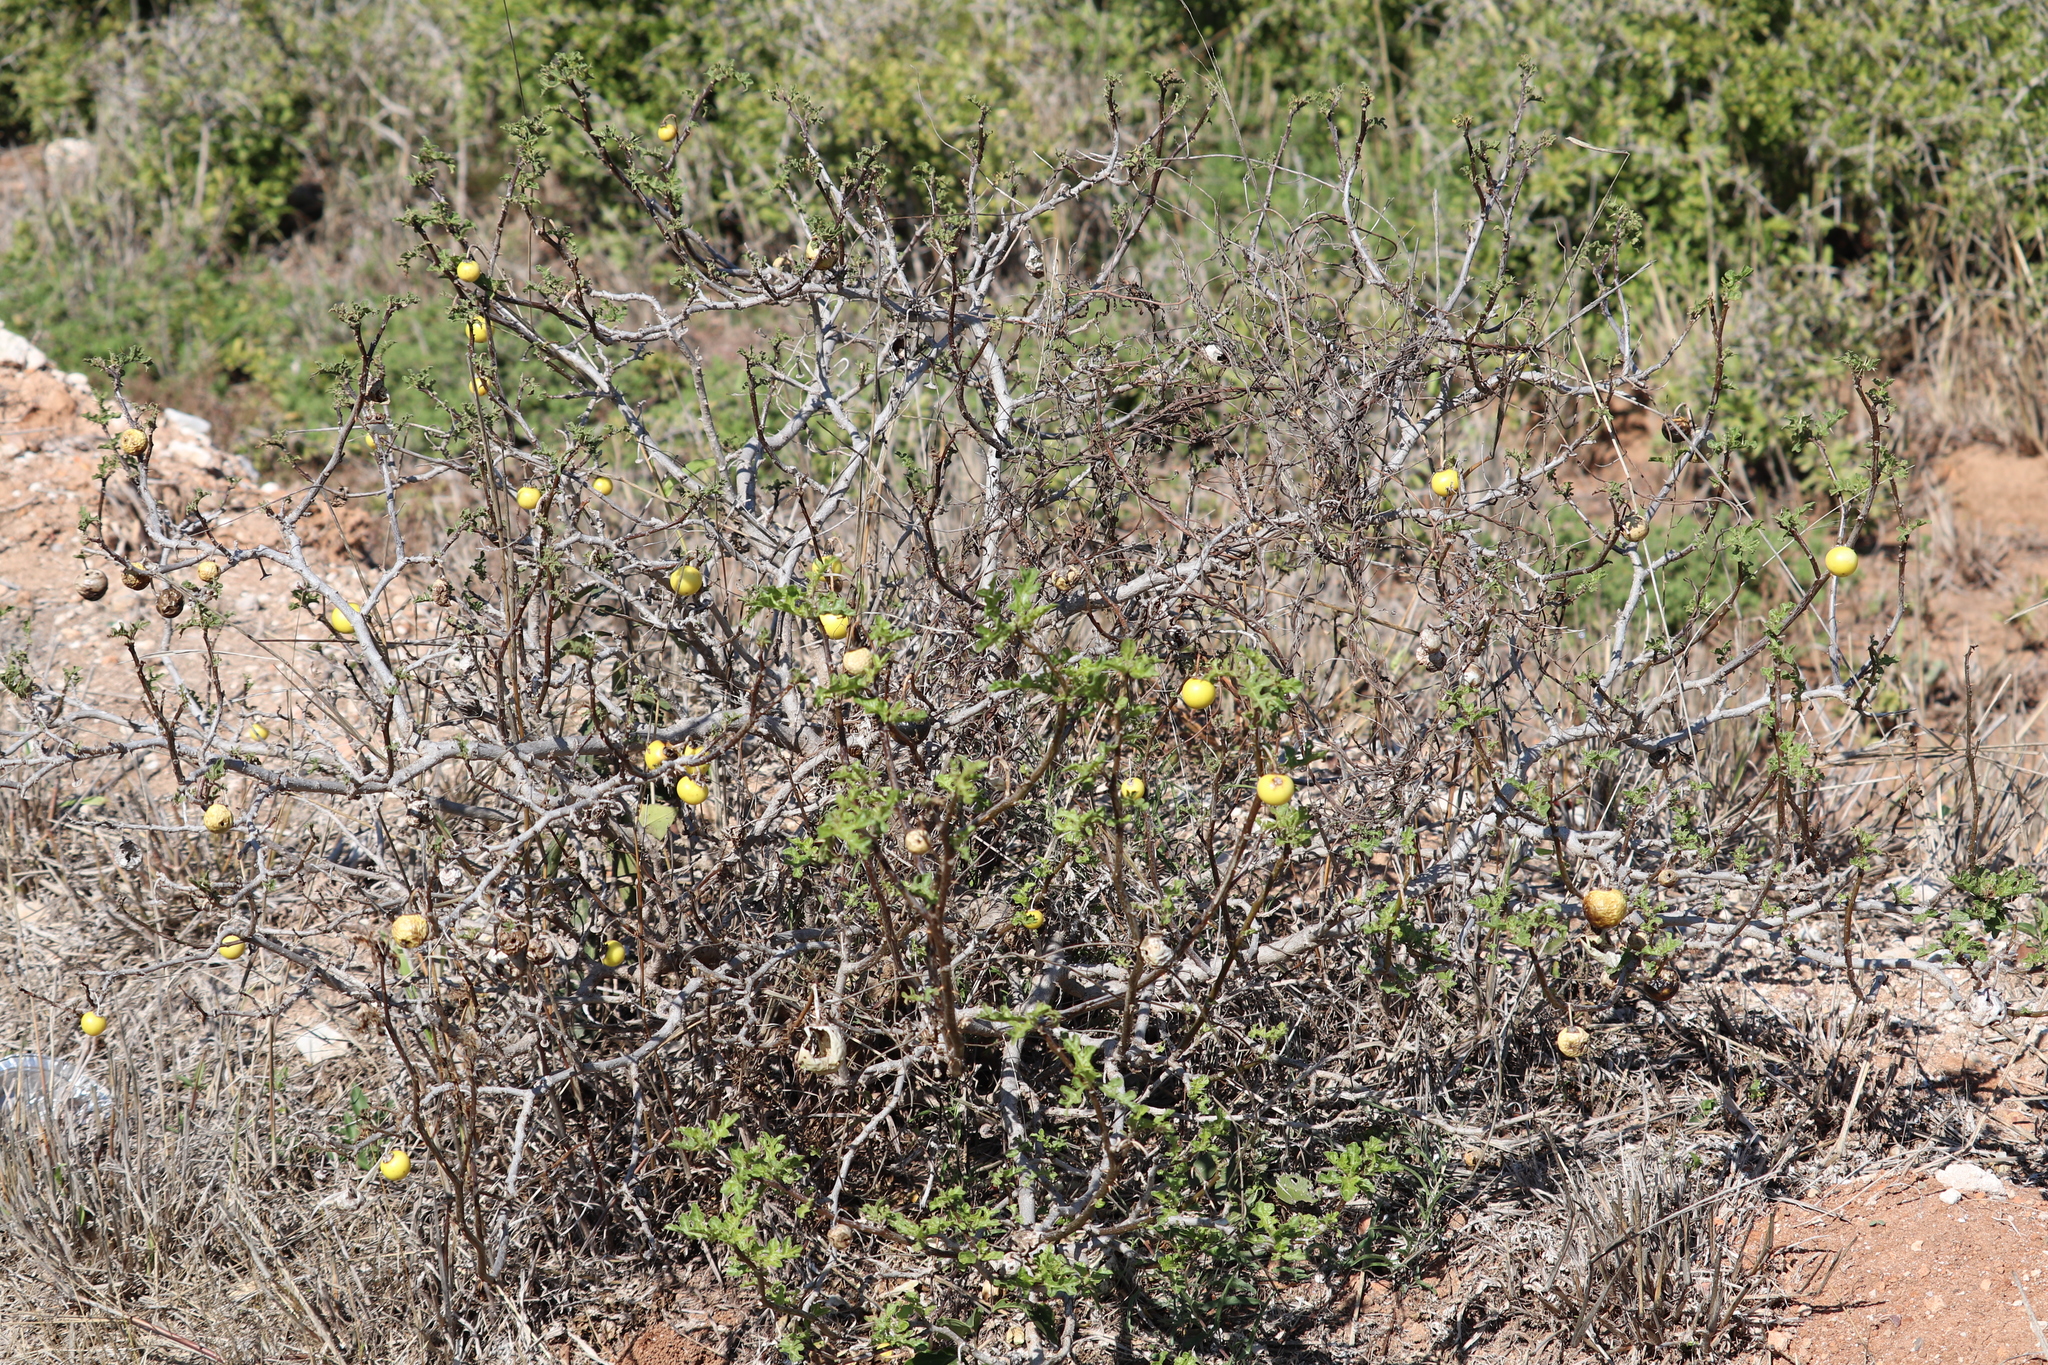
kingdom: Plantae
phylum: Tracheophyta
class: Magnoliopsida
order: Solanales
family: Solanaceae
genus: Solanum
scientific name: Solanum linnaeanum
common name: Nightshade
